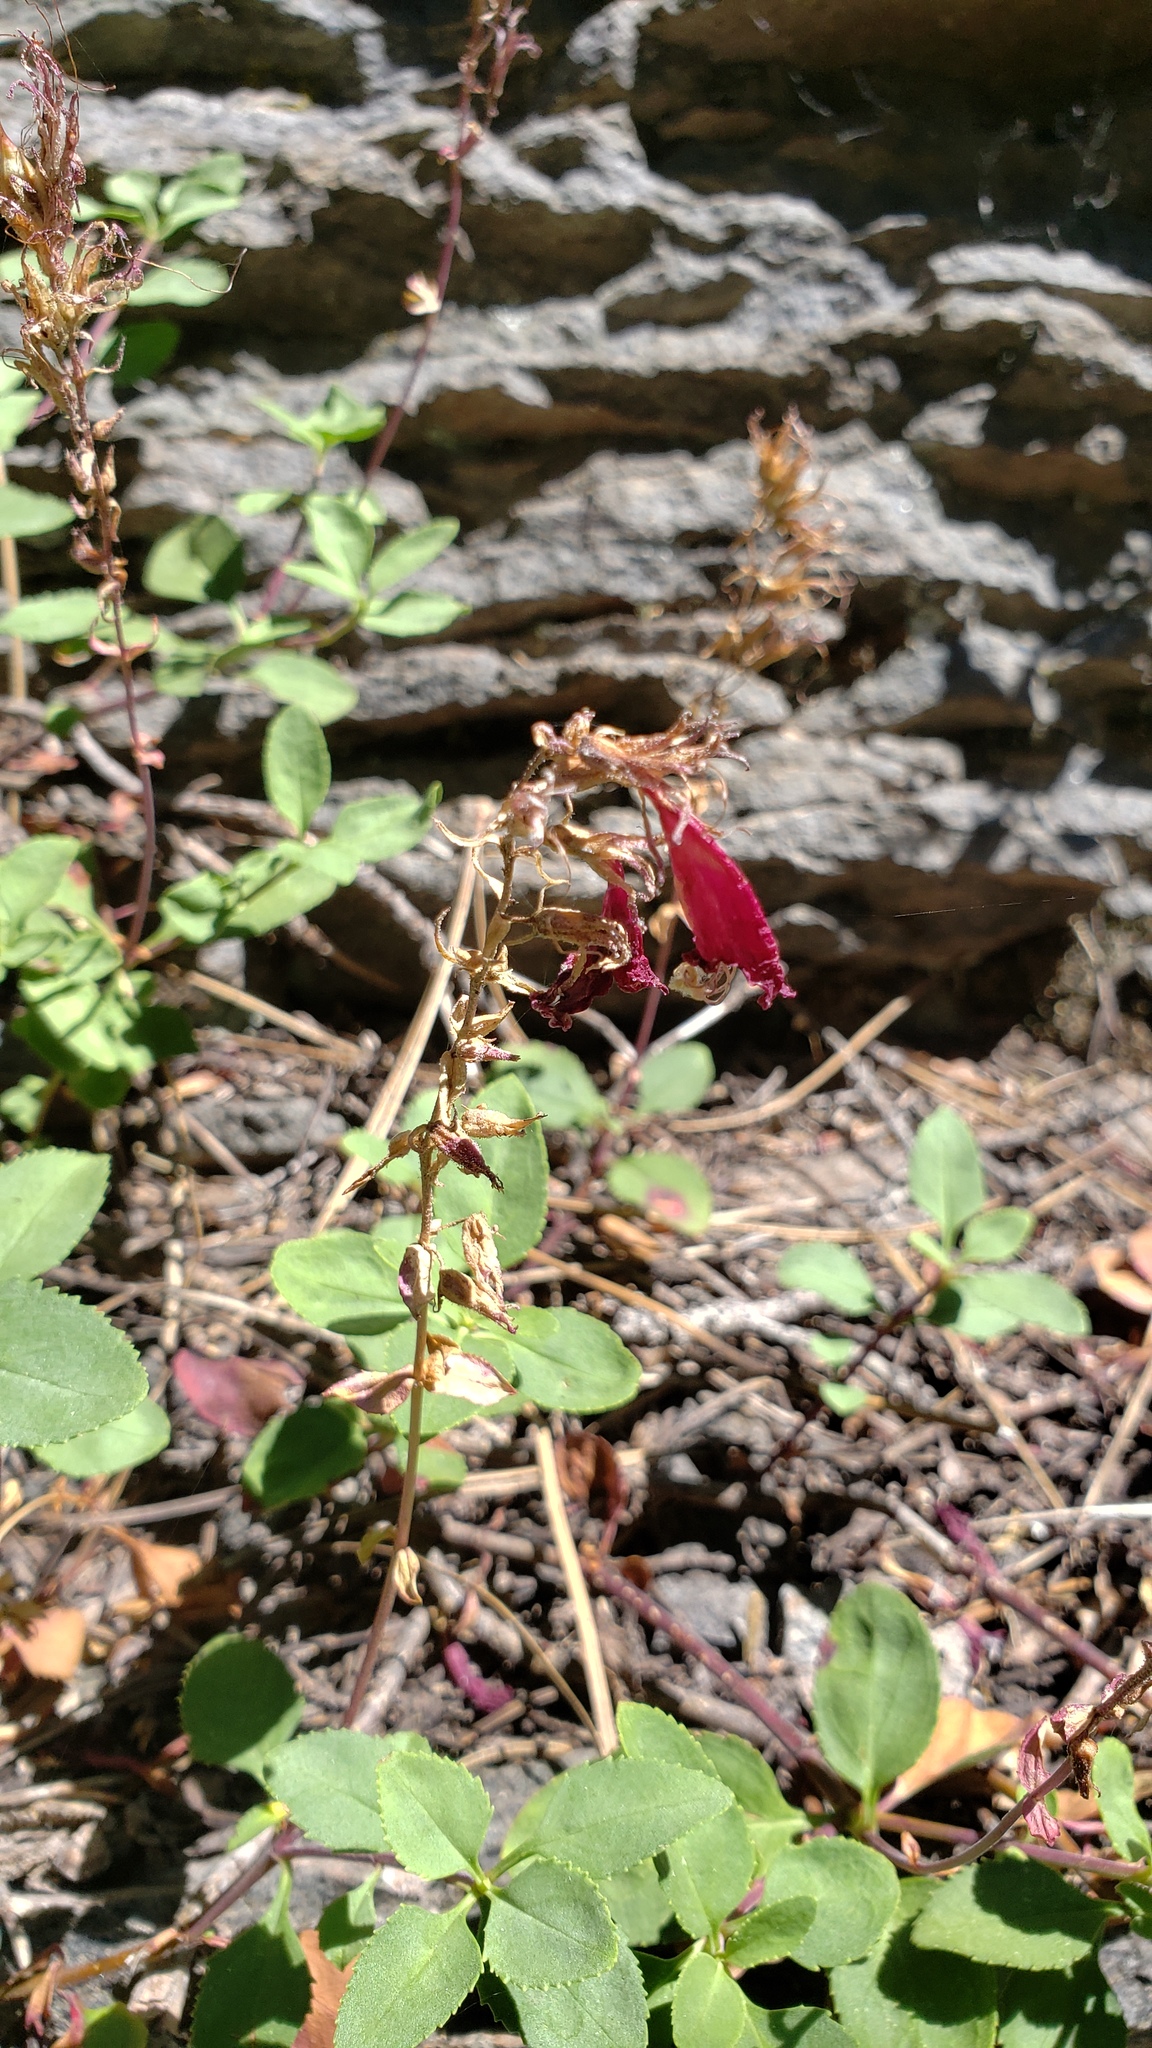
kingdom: Plantae
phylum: Tracheophyta
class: Magnoliopsida
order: Lamiales
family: Plantaginaceae
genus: Penstemon
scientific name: Penstemon newberryi
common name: Mountain-pride
